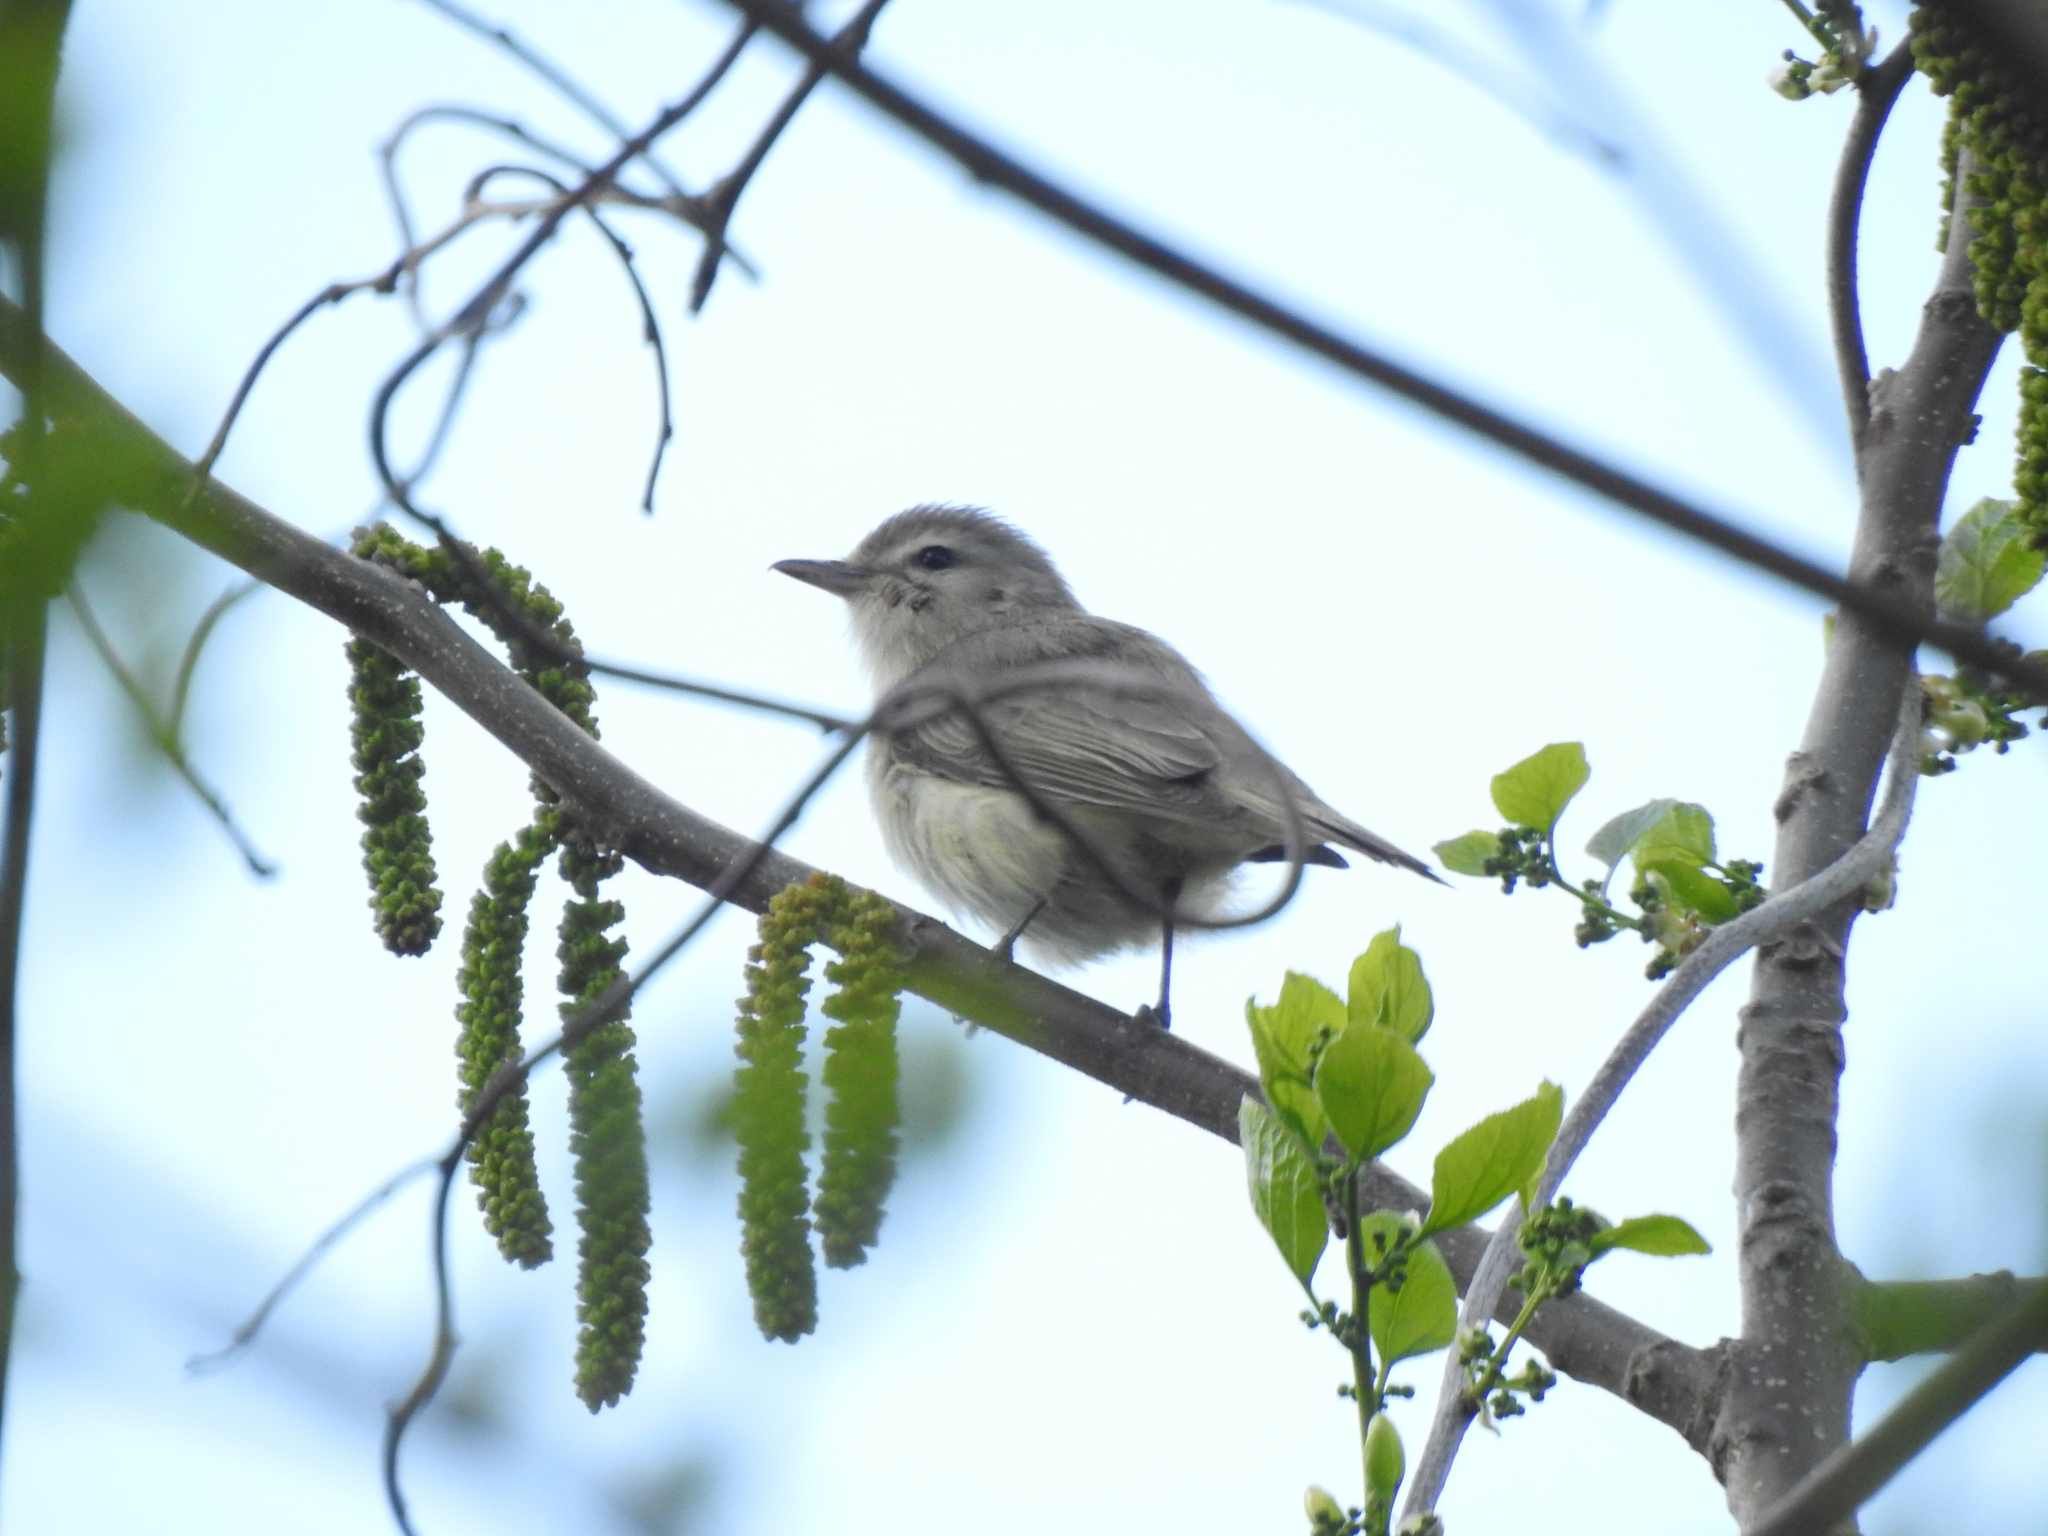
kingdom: Animalia
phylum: Chordata
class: Aves
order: Passeriformes
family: Vireonidae
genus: Vireo
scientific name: Vireo gilvus
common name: Warbling vireo
